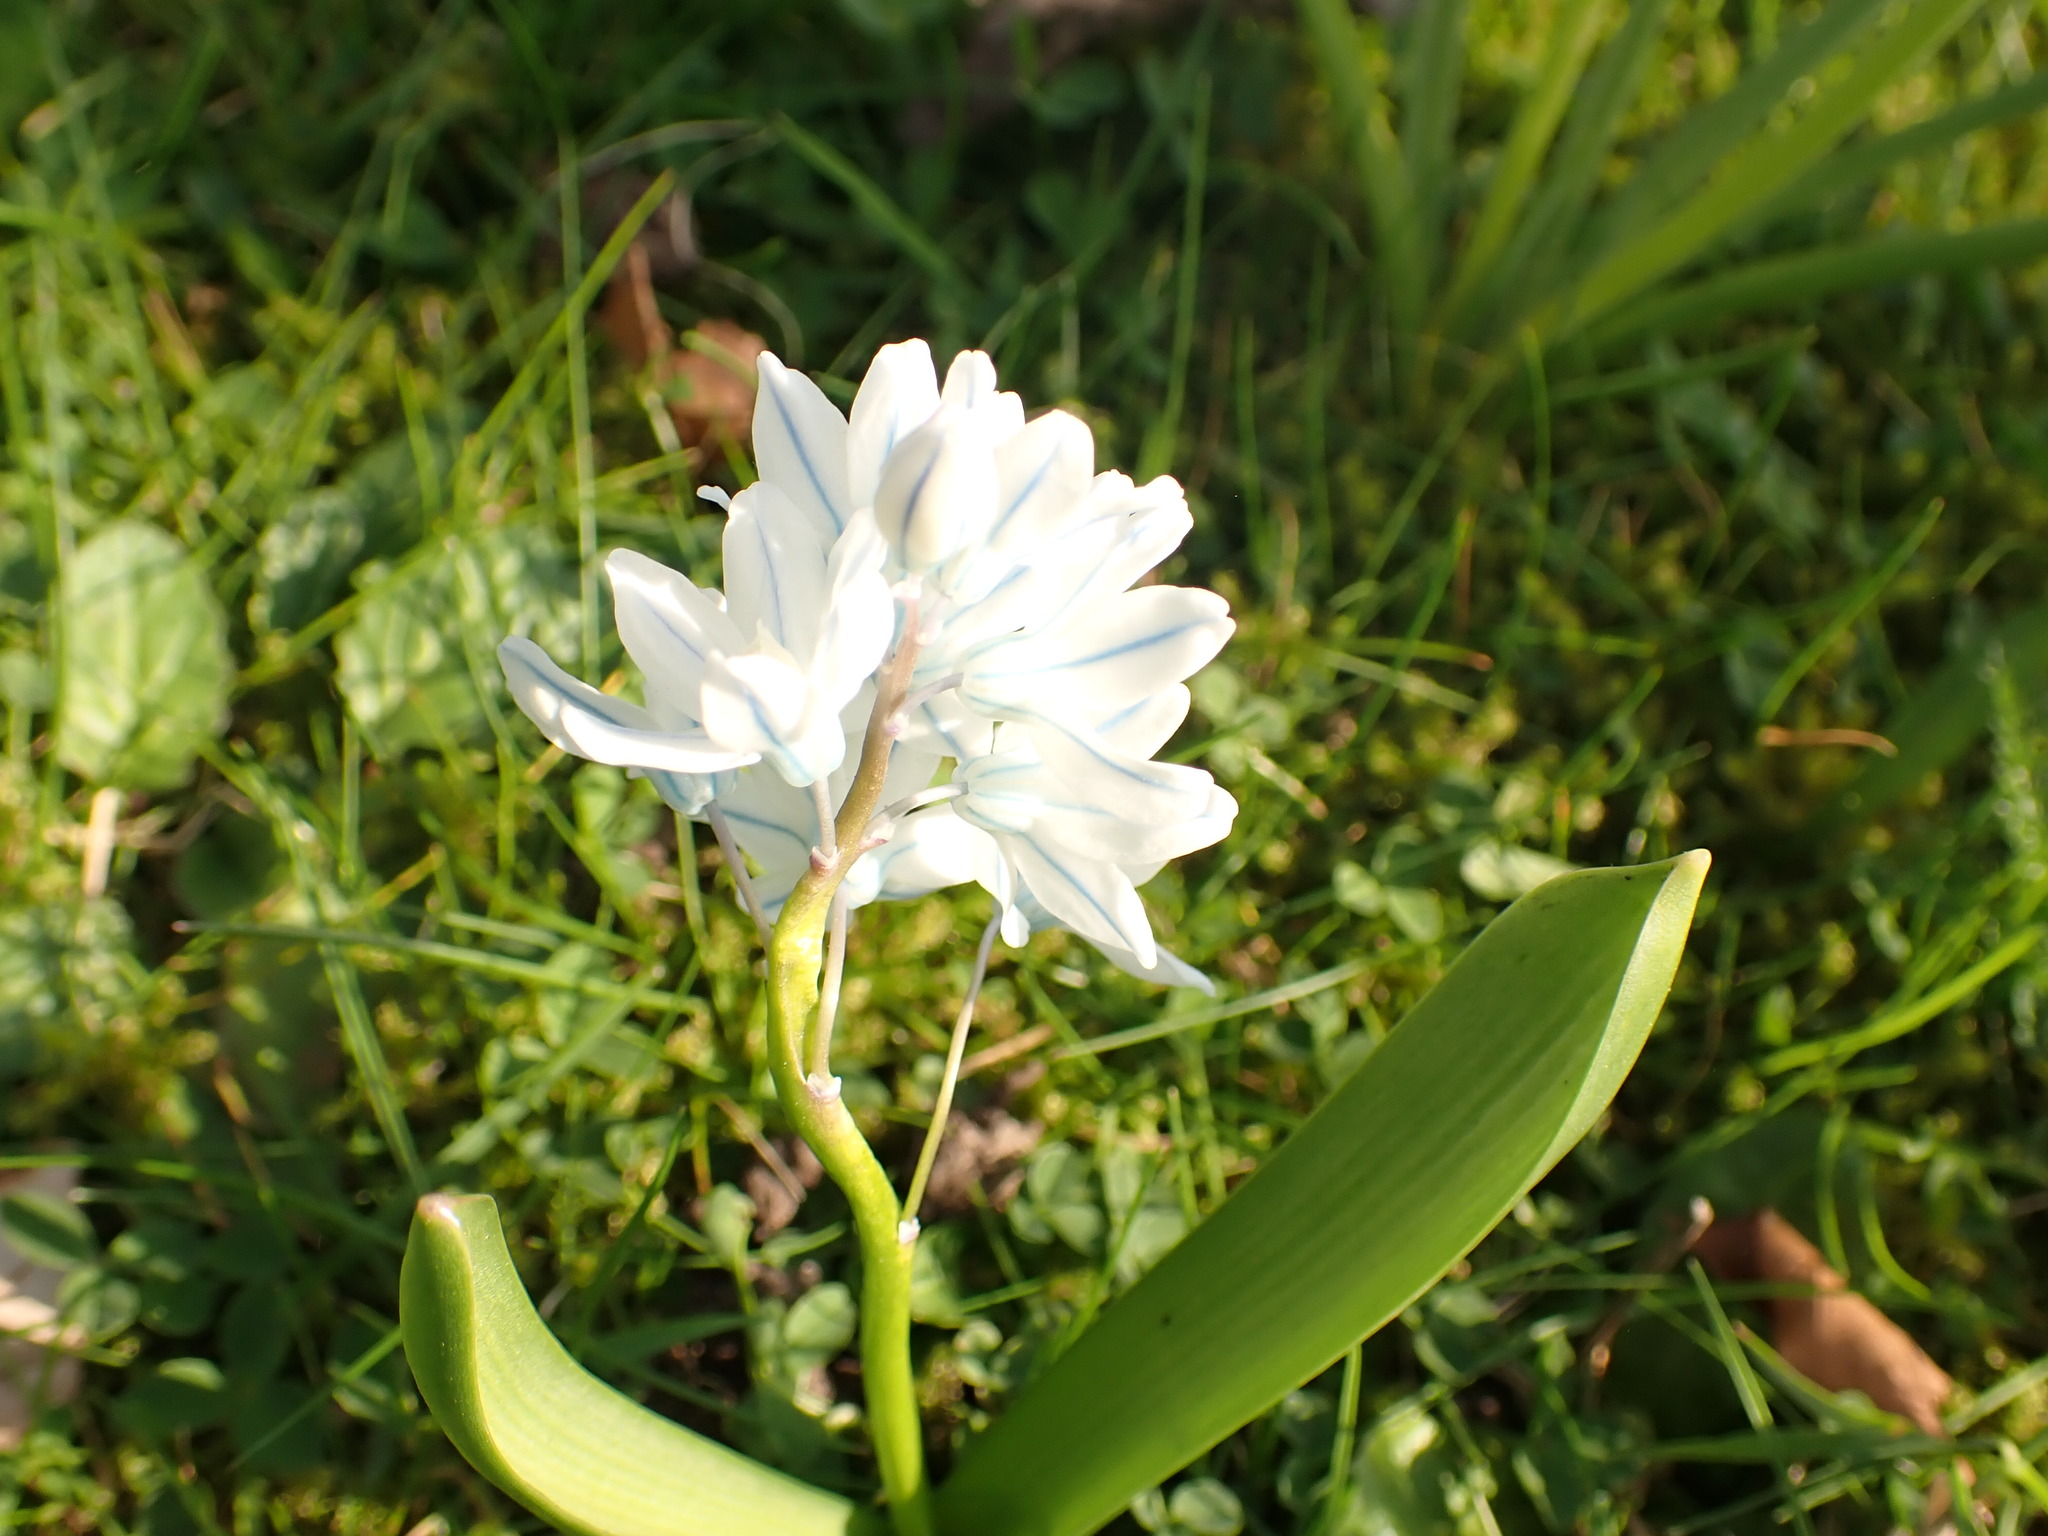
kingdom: Plantae
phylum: Tracheophyta
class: Liliopsida
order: Asparagales
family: Asparagaceae
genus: Puschkinia
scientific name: Puschkinia scilloides
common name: Striped squill
